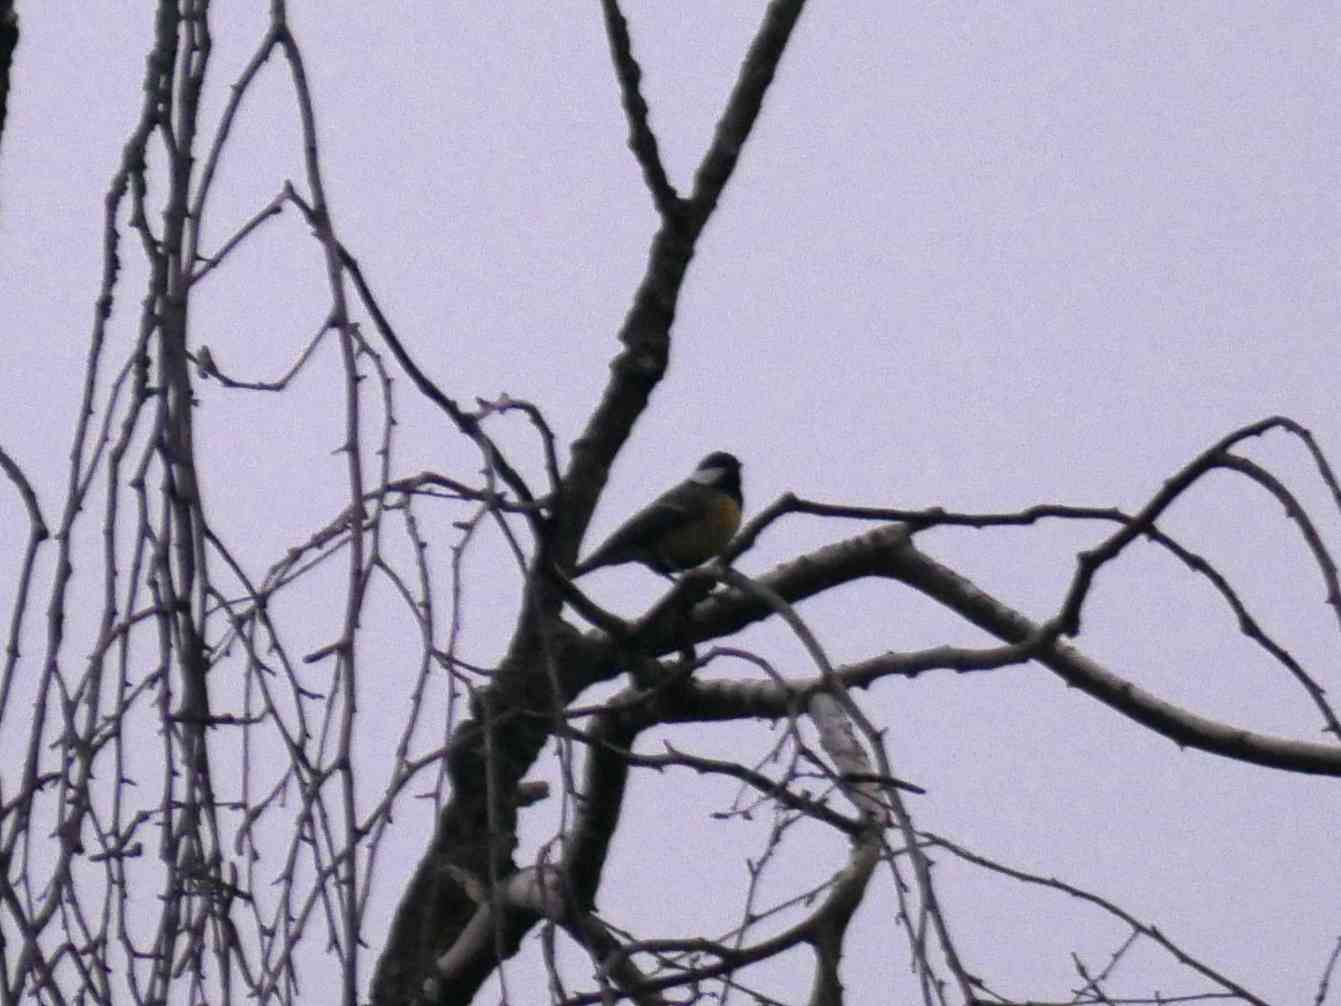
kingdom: Animalia
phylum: Chordata
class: Aves
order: Passeriformes
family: Paridae
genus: Parus
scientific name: Parus major
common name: Great tit
